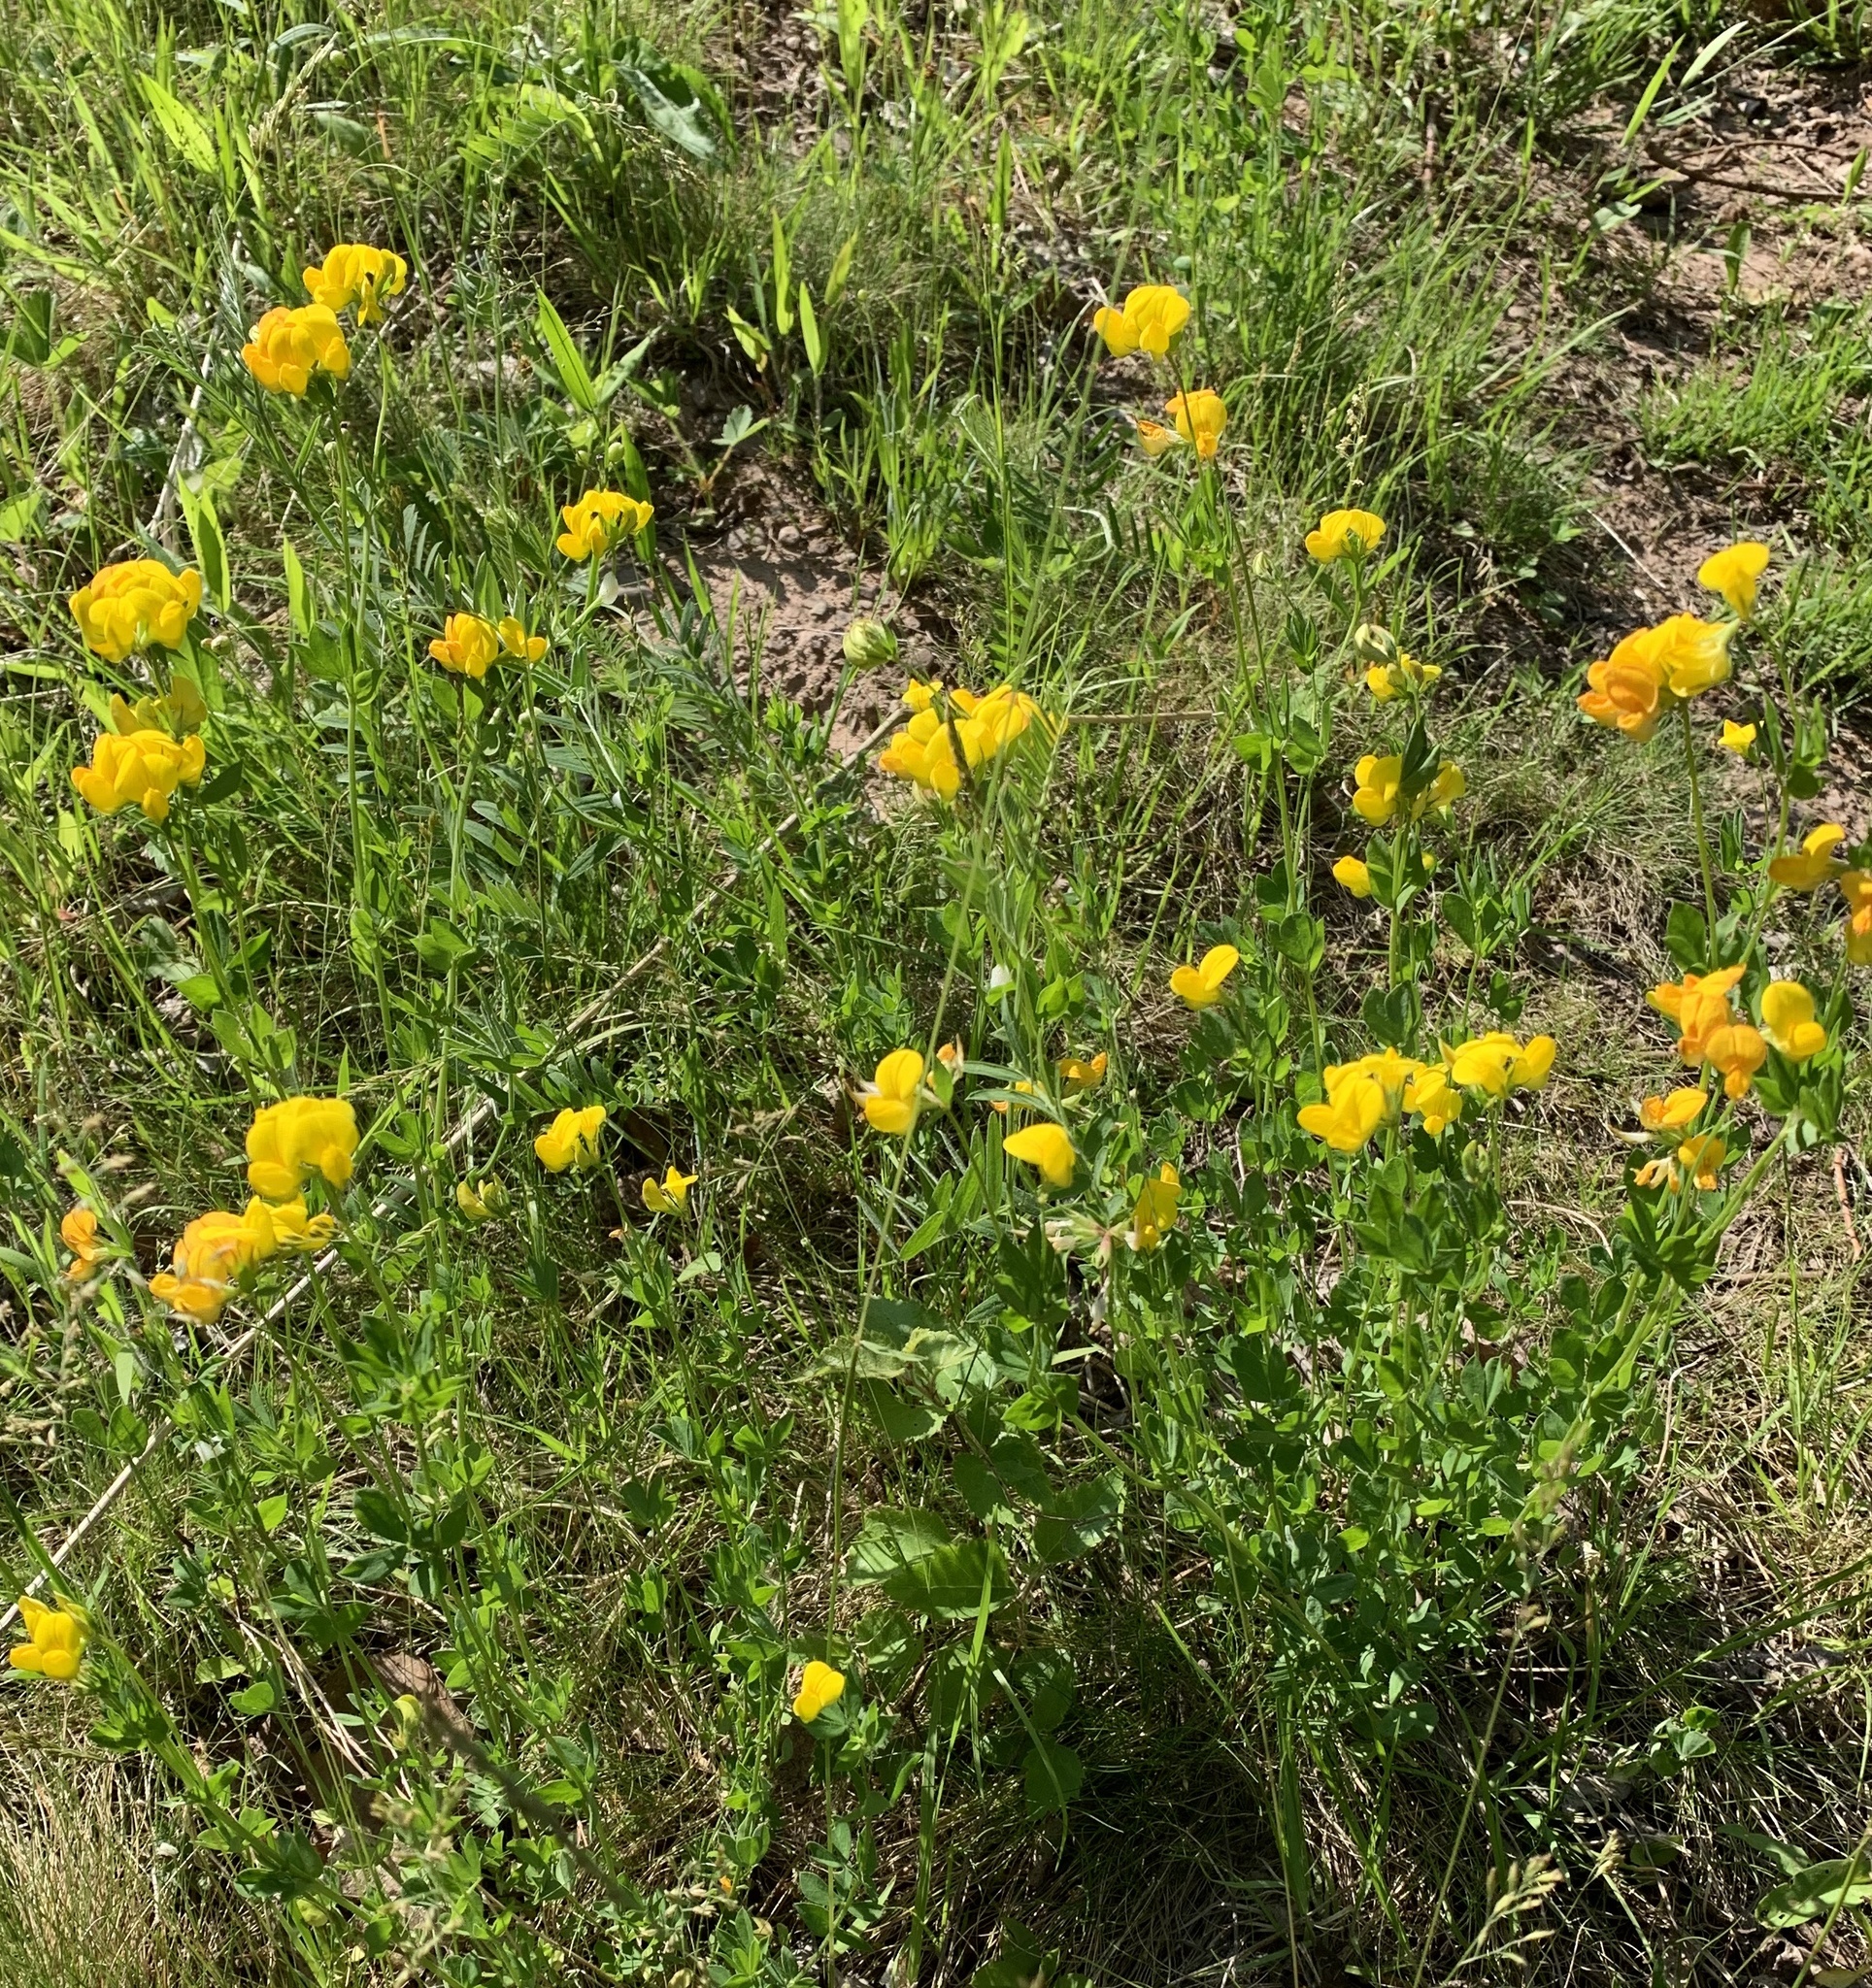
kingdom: Plantae
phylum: Tracheophyta
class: Magnoliopsida
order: Fabales
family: Fabaceae
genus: Lotus
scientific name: Lotus corniculatus
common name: Common bird's-foot-trefoil
